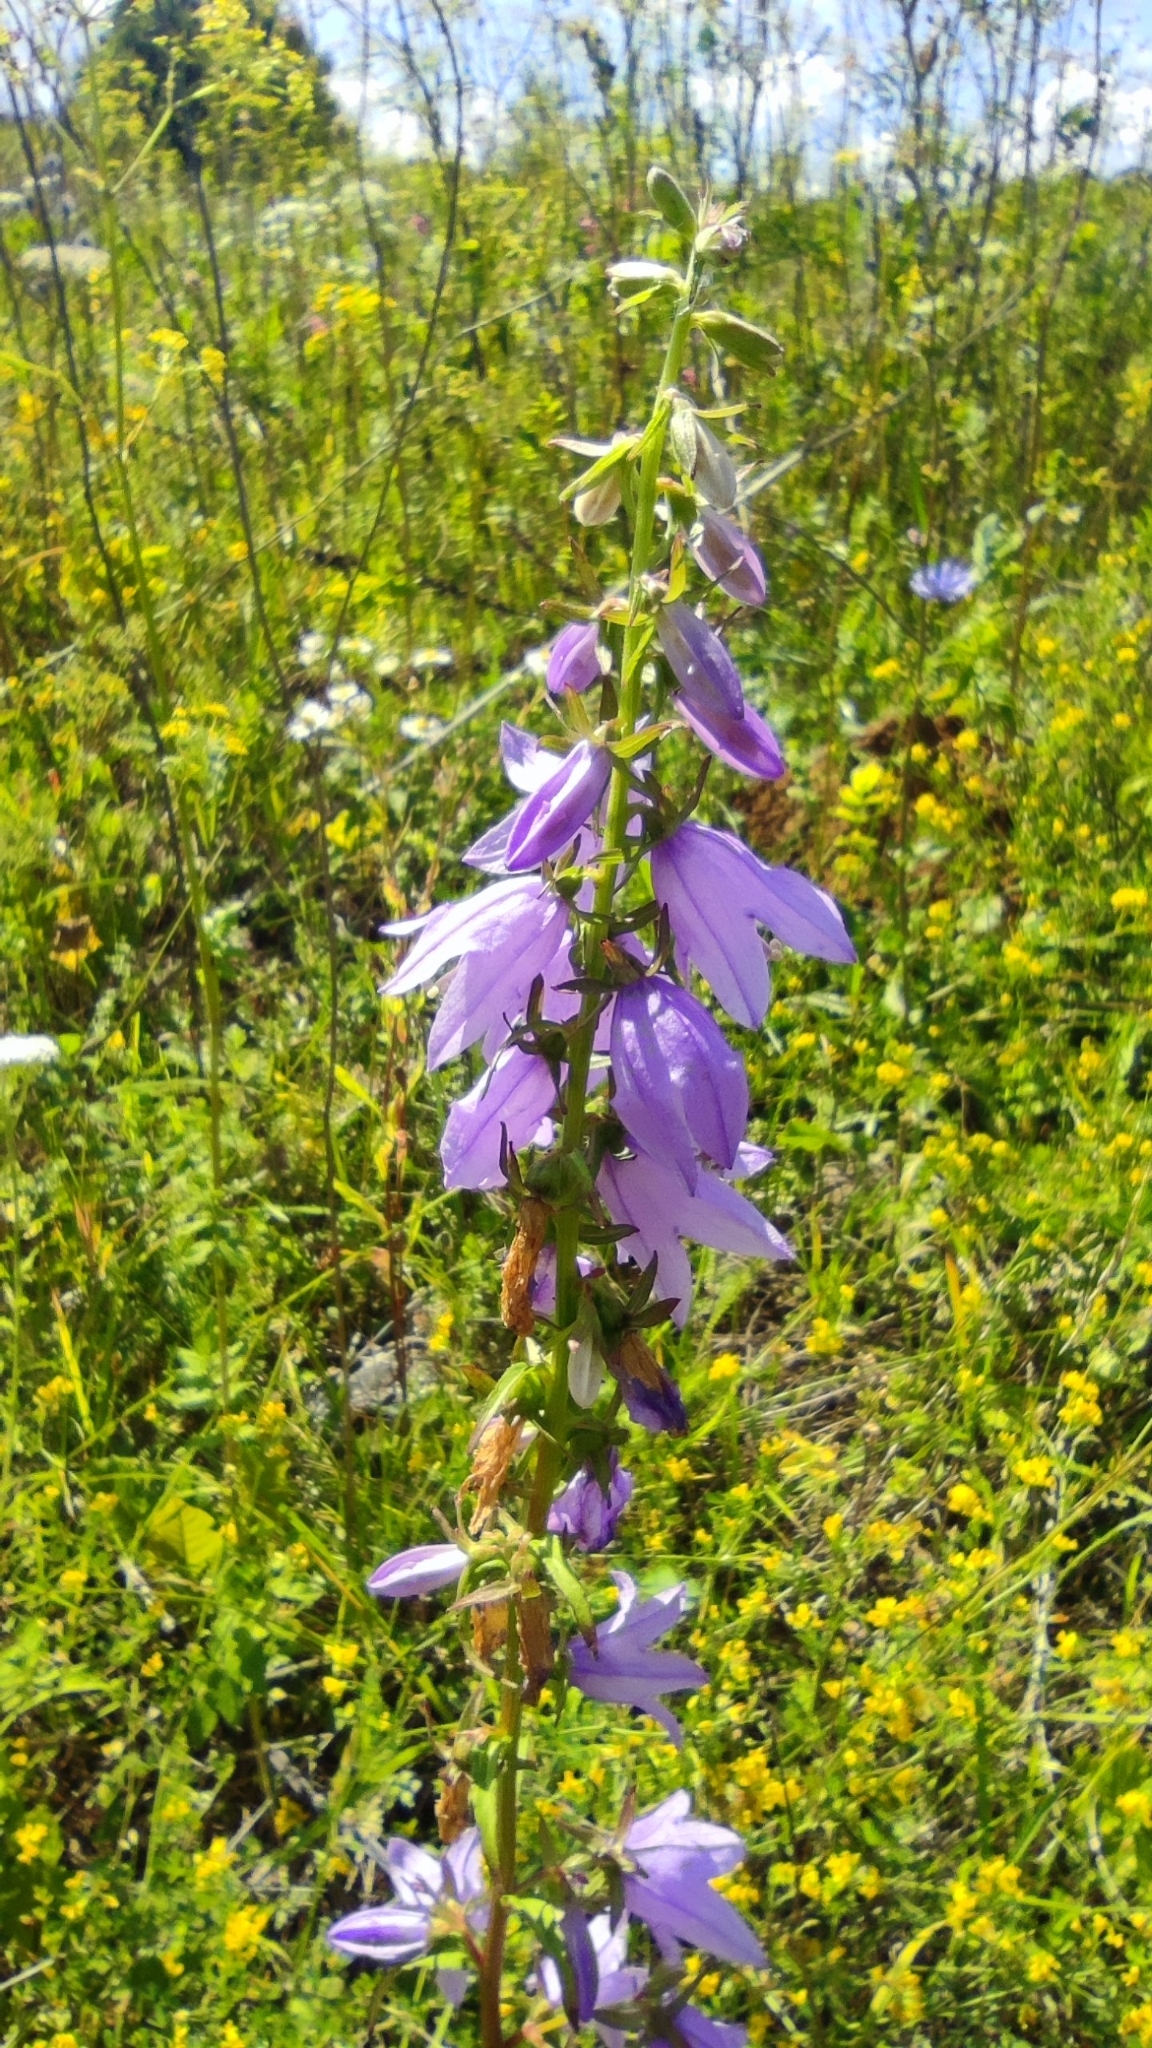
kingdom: Plantae
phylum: Tracheophyta
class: Magnoliopsida
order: Asterales
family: Campanulaceae
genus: Campanula
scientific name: Campanula rapunculoides
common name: Creeping bellflower
